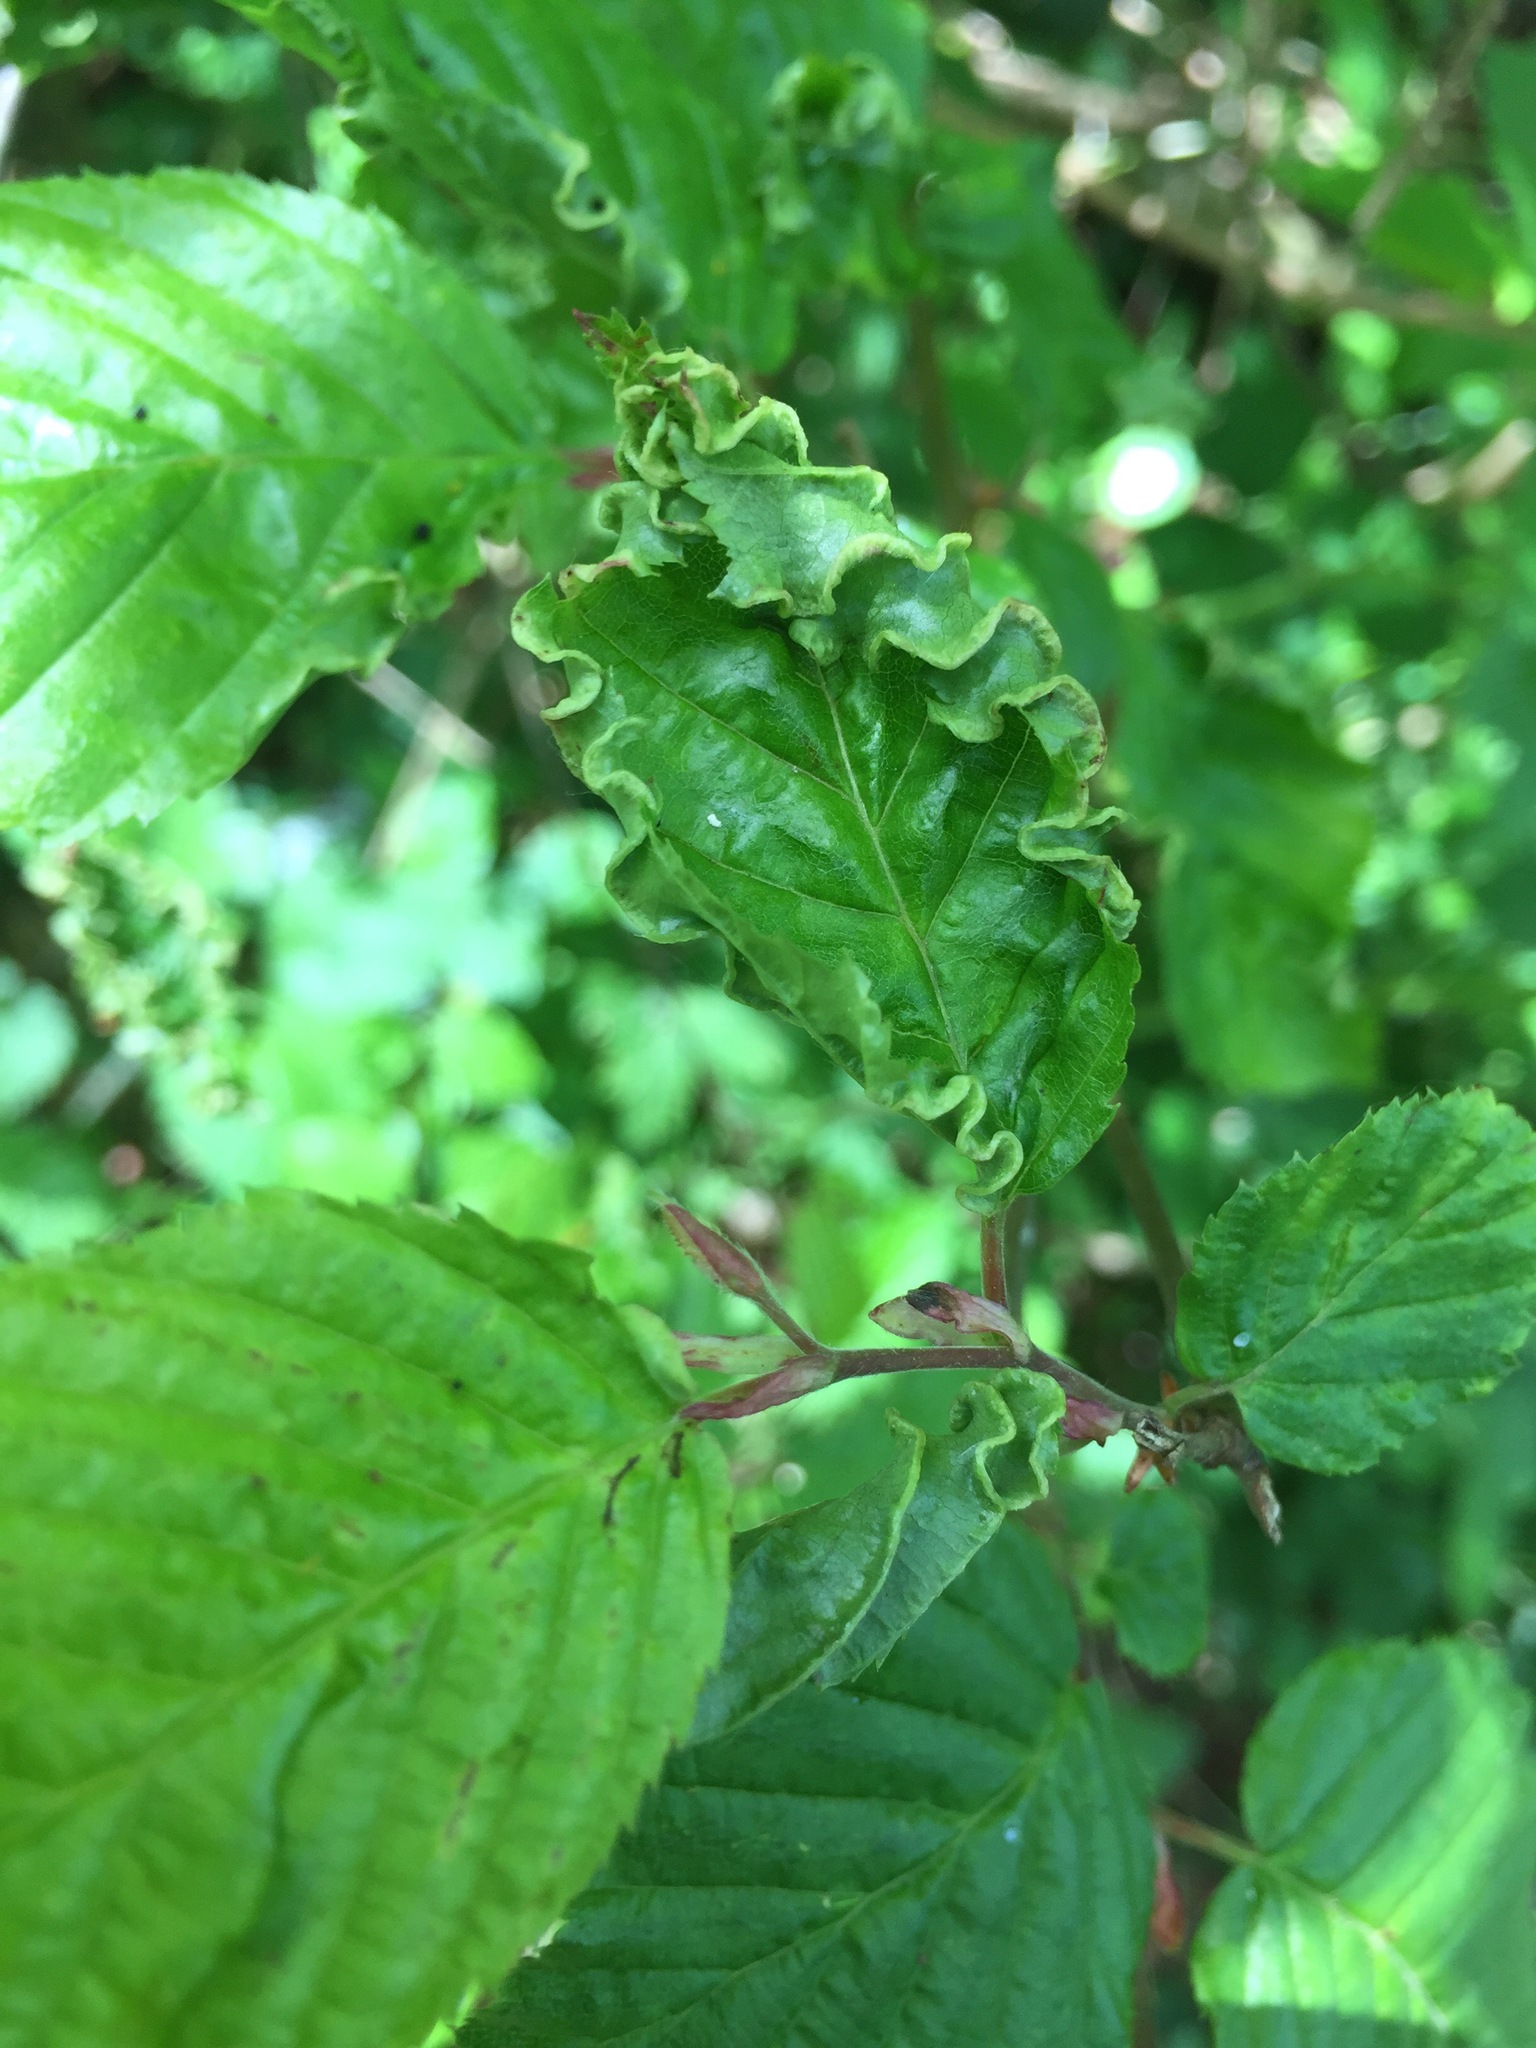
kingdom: Animalia
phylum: Arthropoda
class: Arachnida
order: Trombidiformes
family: Eriophyidae
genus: Aculops
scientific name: Aculops macrotrichus
